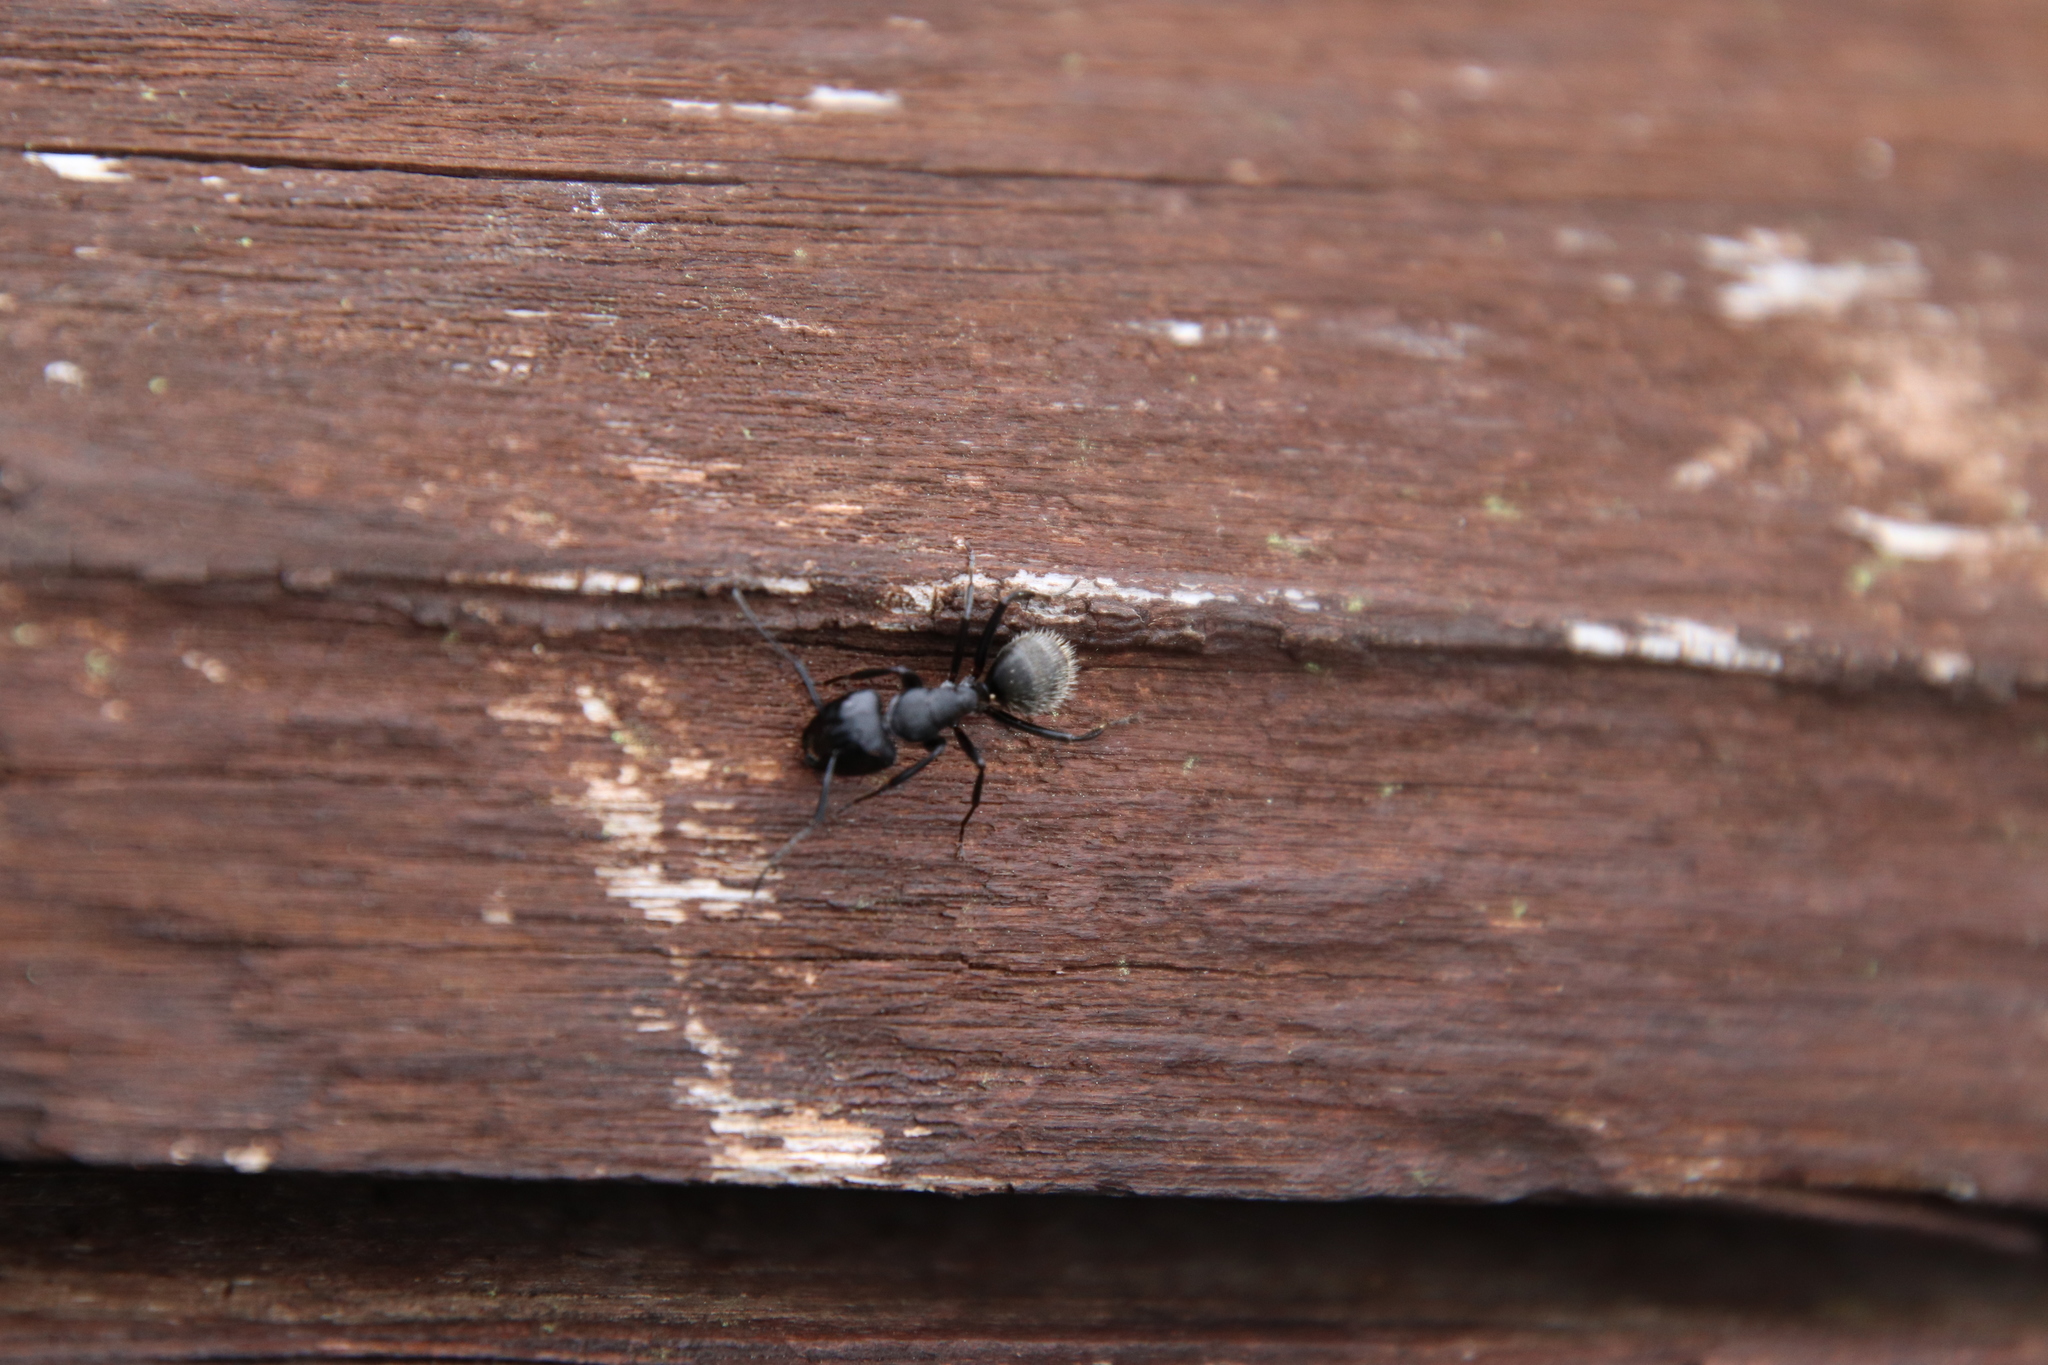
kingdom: Animalia
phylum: Arthropoda
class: Insecta
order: Hymenoptera
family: Formicidae
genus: Camponotus
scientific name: Camponotus vagus
